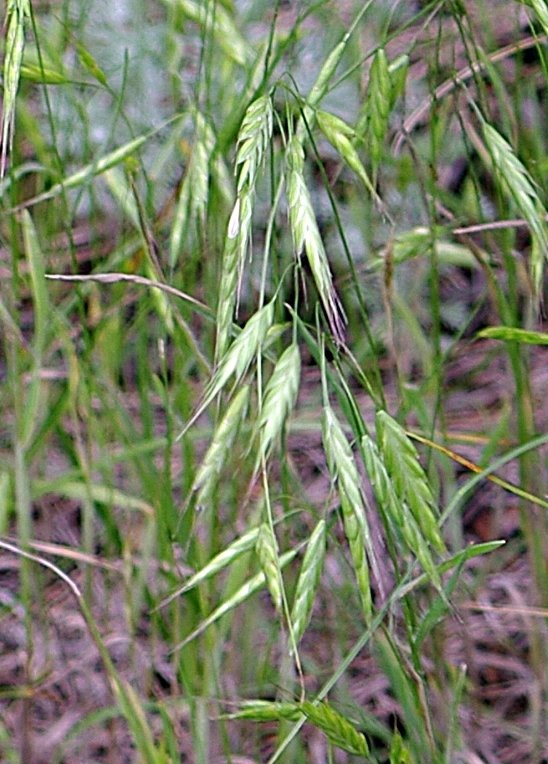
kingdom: Plantae
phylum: Tracheophyta
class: Liliopsida
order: Poales
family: Poaceae
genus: Bromus
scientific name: Bromus japonicus
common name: Japanese brome
